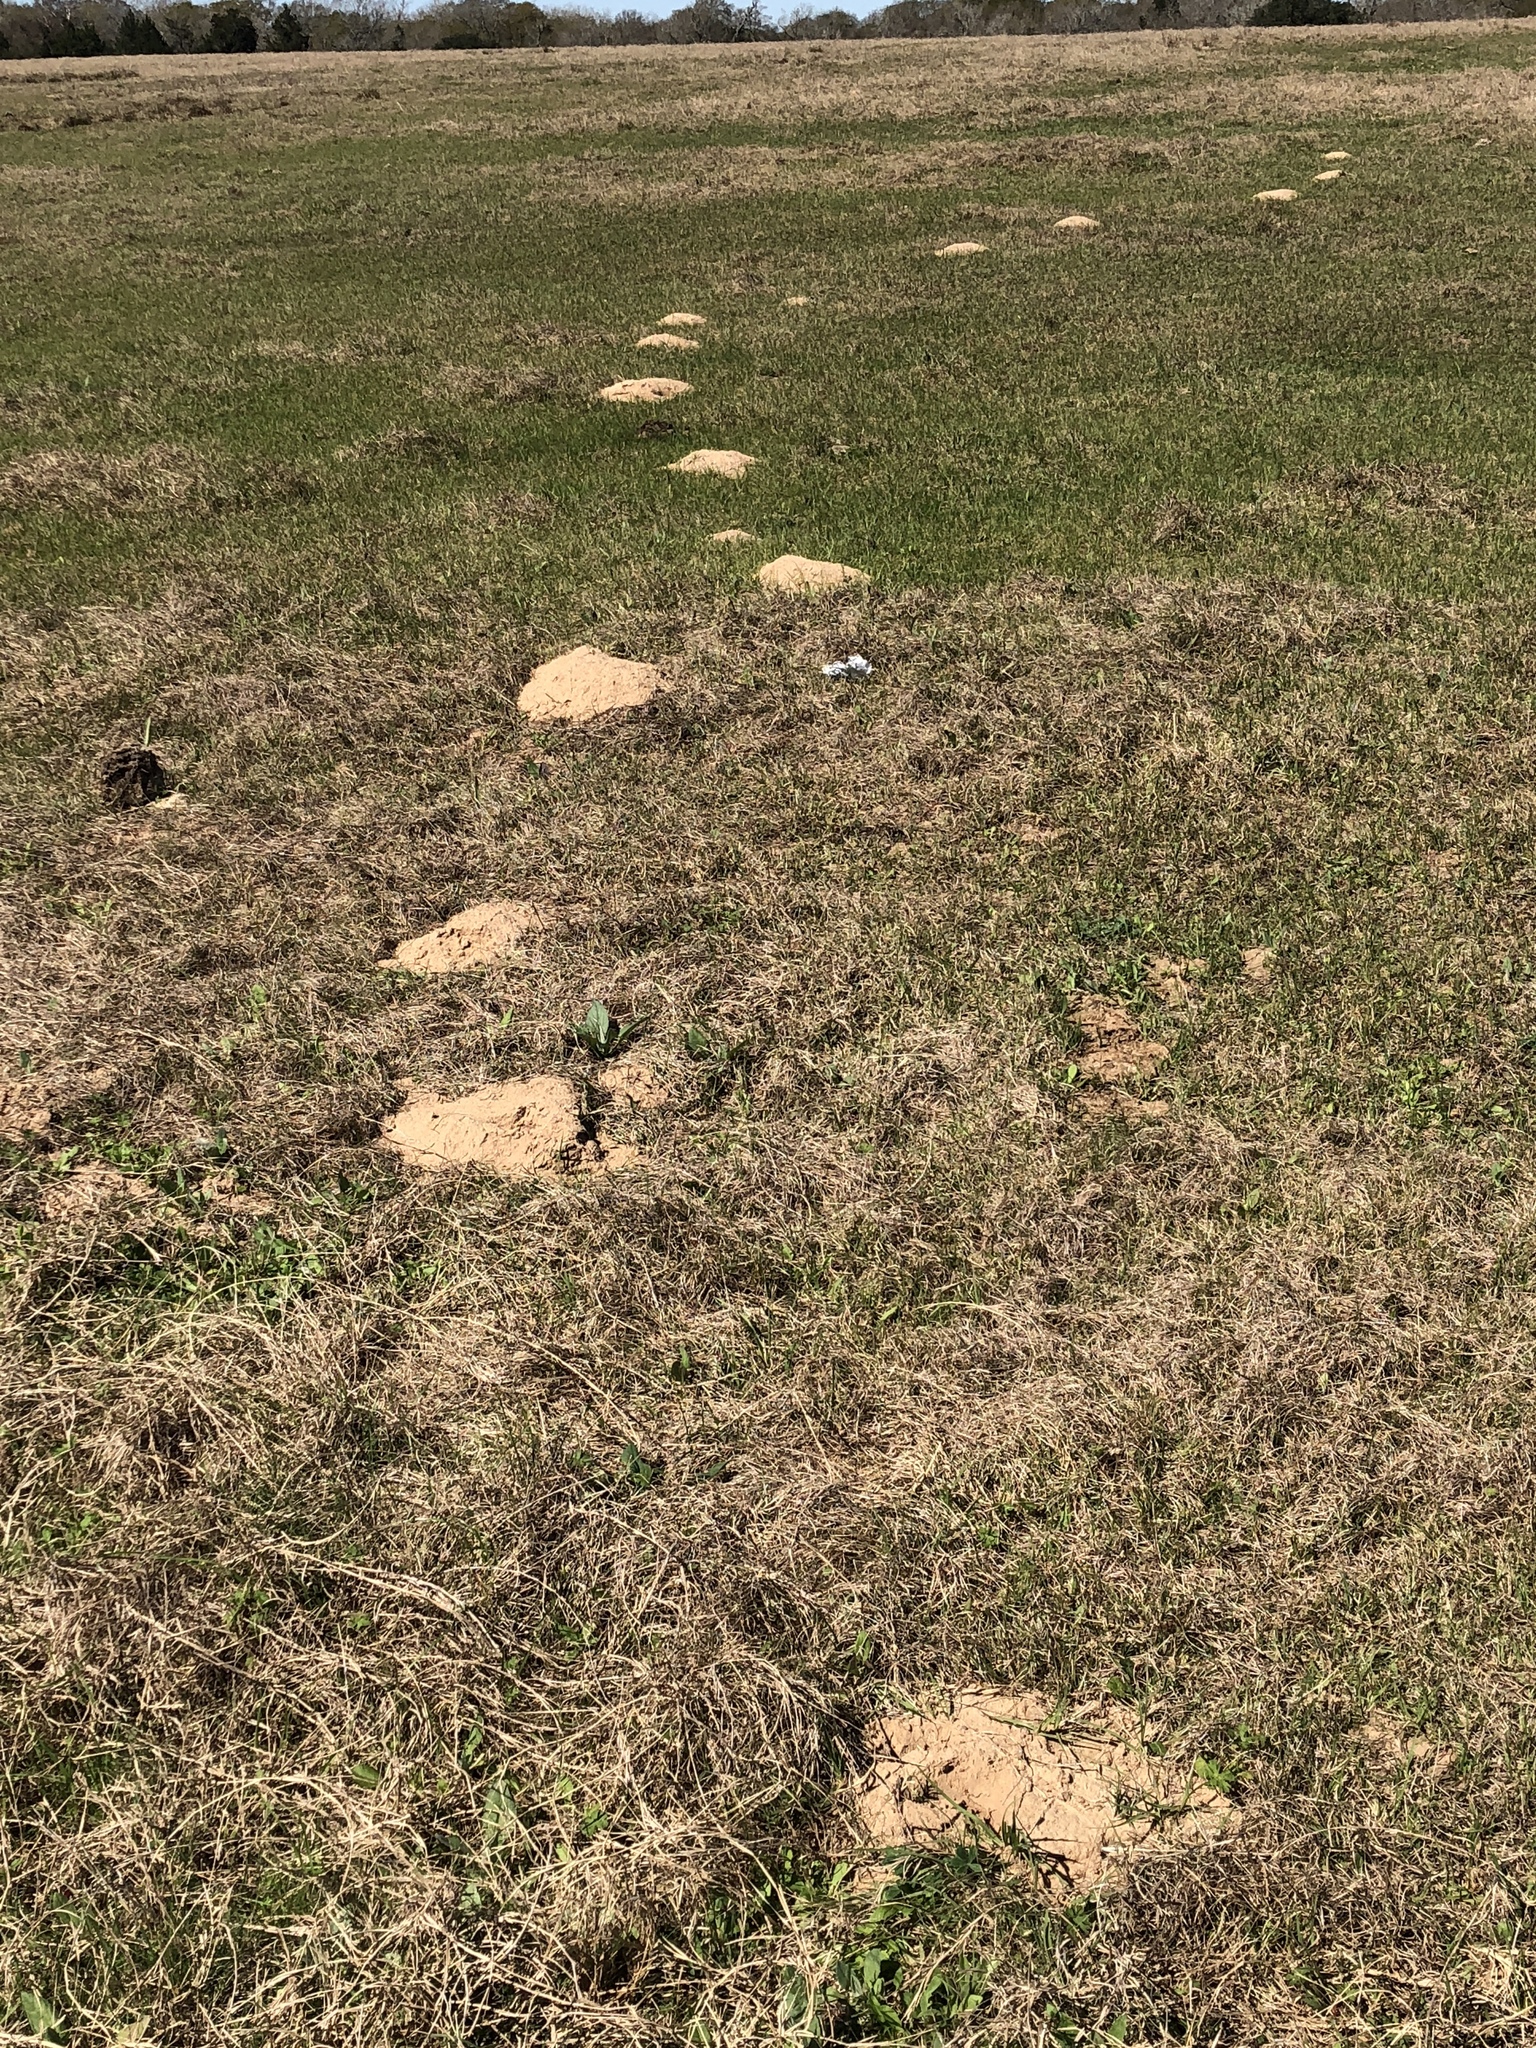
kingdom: Animalia
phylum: Chordata
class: Mammalia
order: Rodentia
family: Geomyidae
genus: Geomys
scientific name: Geomys attwateri
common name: Attwater's pocket gopher
